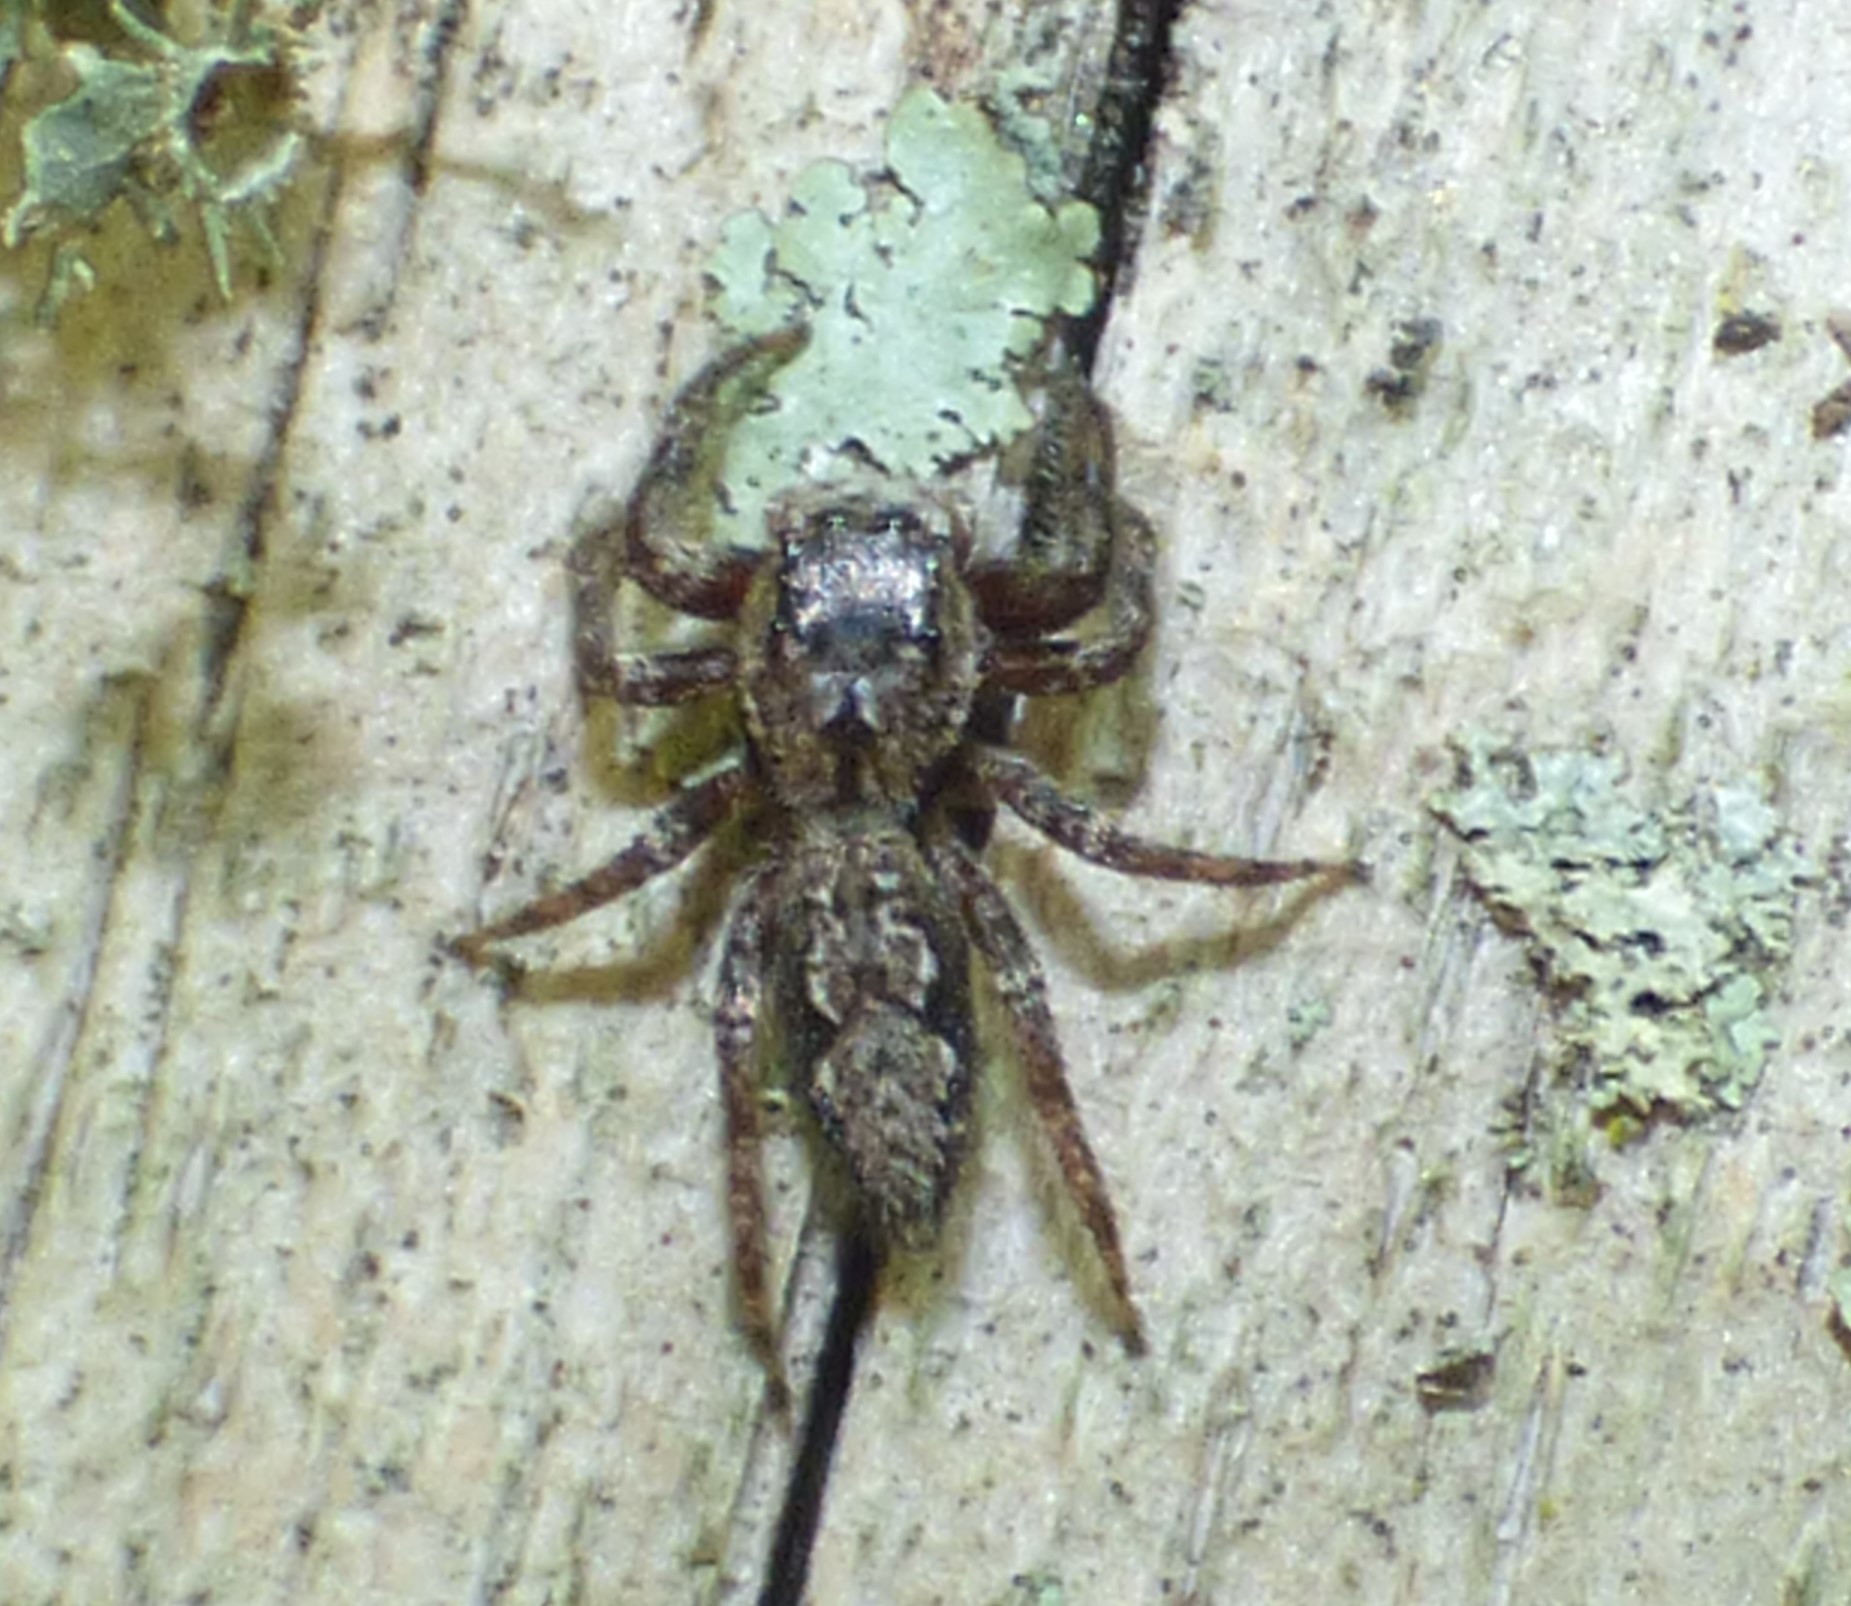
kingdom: Animalia
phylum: Arthropoda
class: Arachnida
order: Araneae
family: Salticidae
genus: Platycryptus
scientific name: Platycryptus undatus
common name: Tan jumping spider
